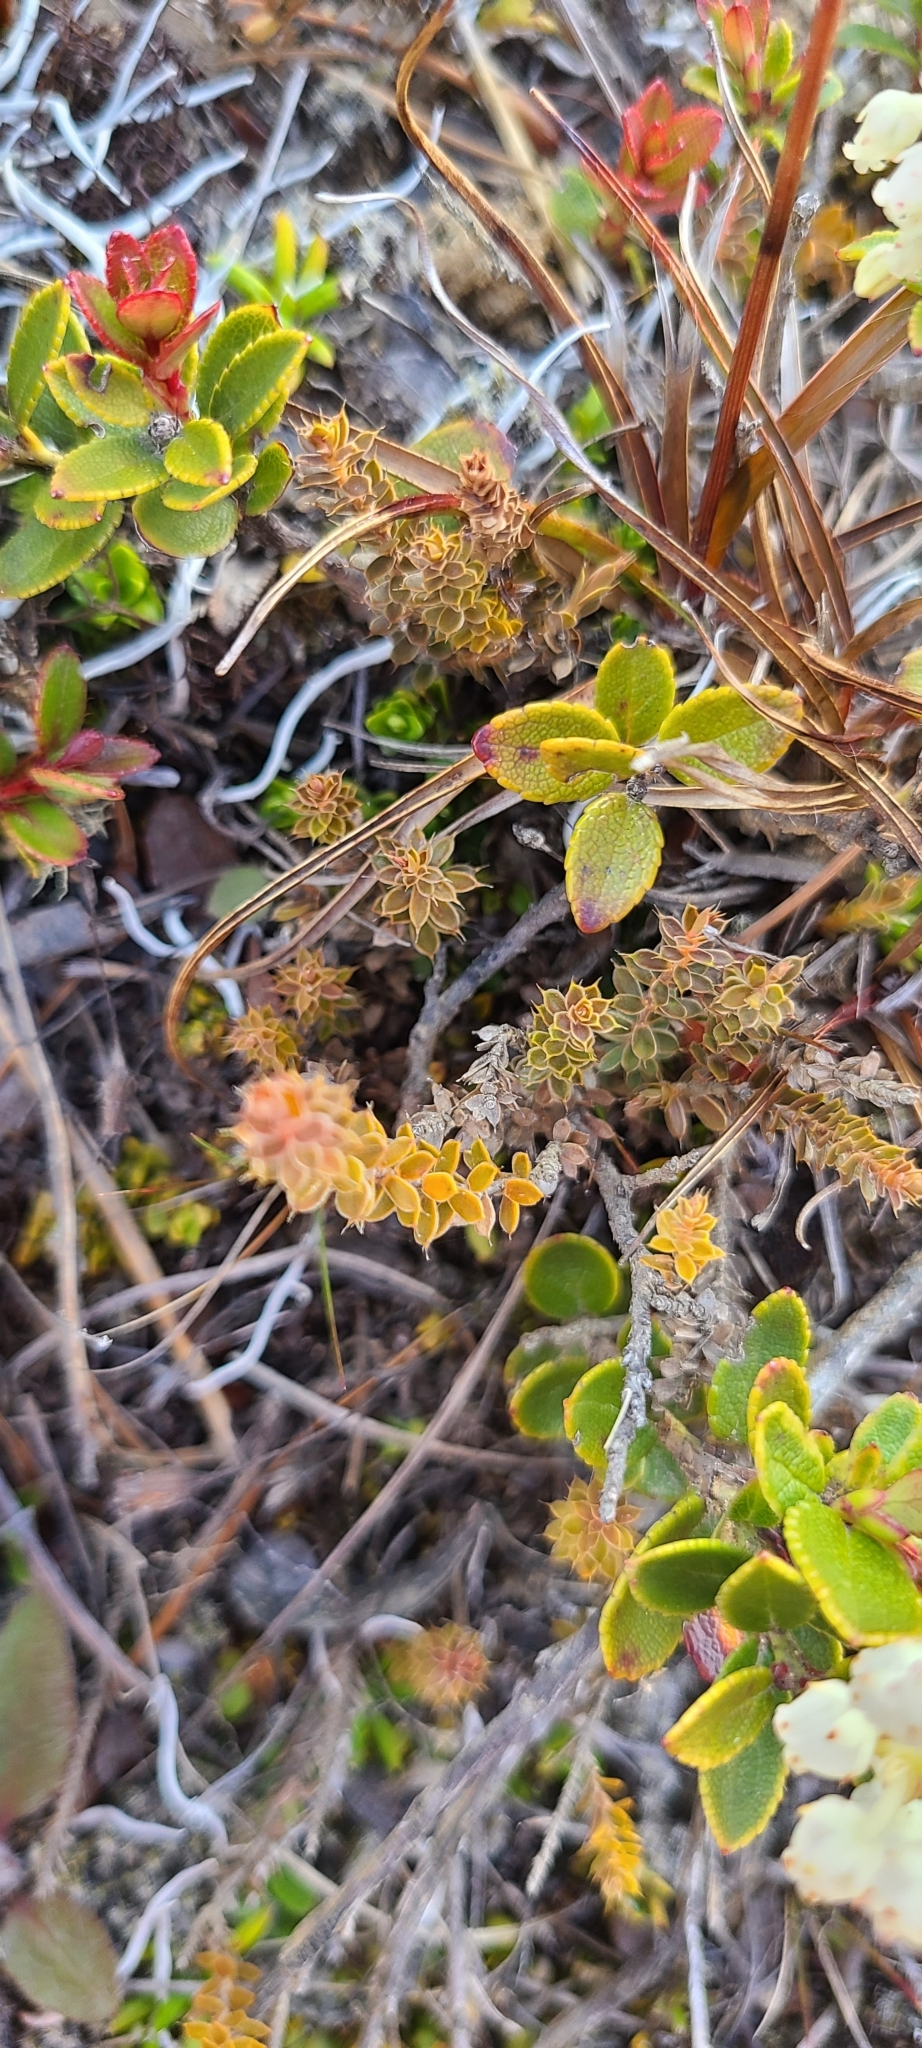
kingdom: Plantae
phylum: Tracheophyta
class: Magnoliopsida
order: Ericales
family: Ericaceae
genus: Styphelia
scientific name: Styphelia nesophila
